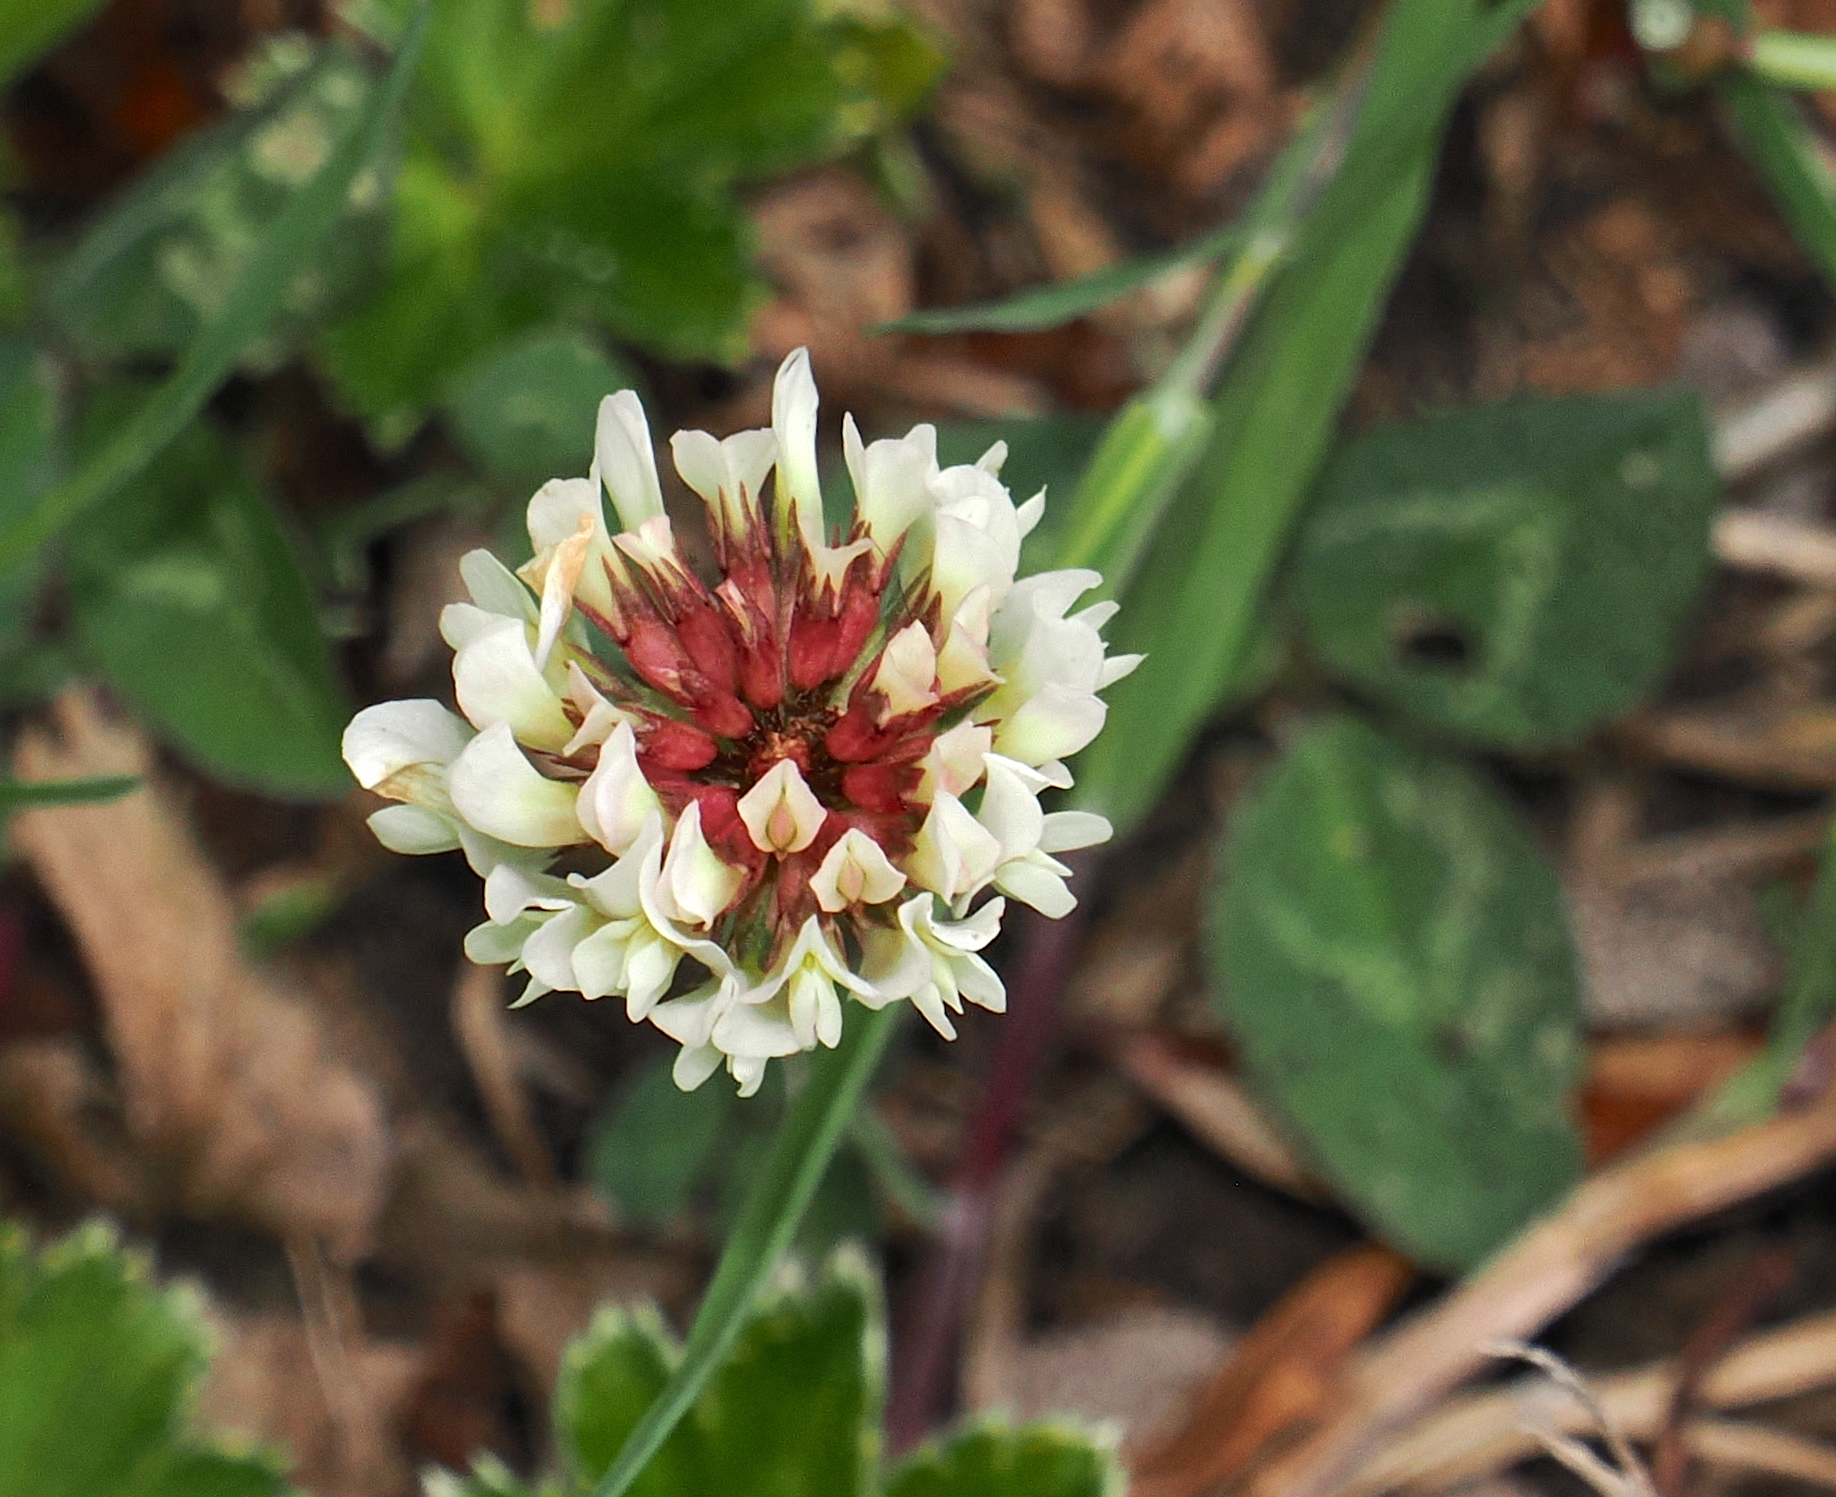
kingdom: Plantae
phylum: Tracheophyta
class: Magnoliopsida
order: Fabales
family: Fabaceae
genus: Trifolium
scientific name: Trifolium repens
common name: White clover
